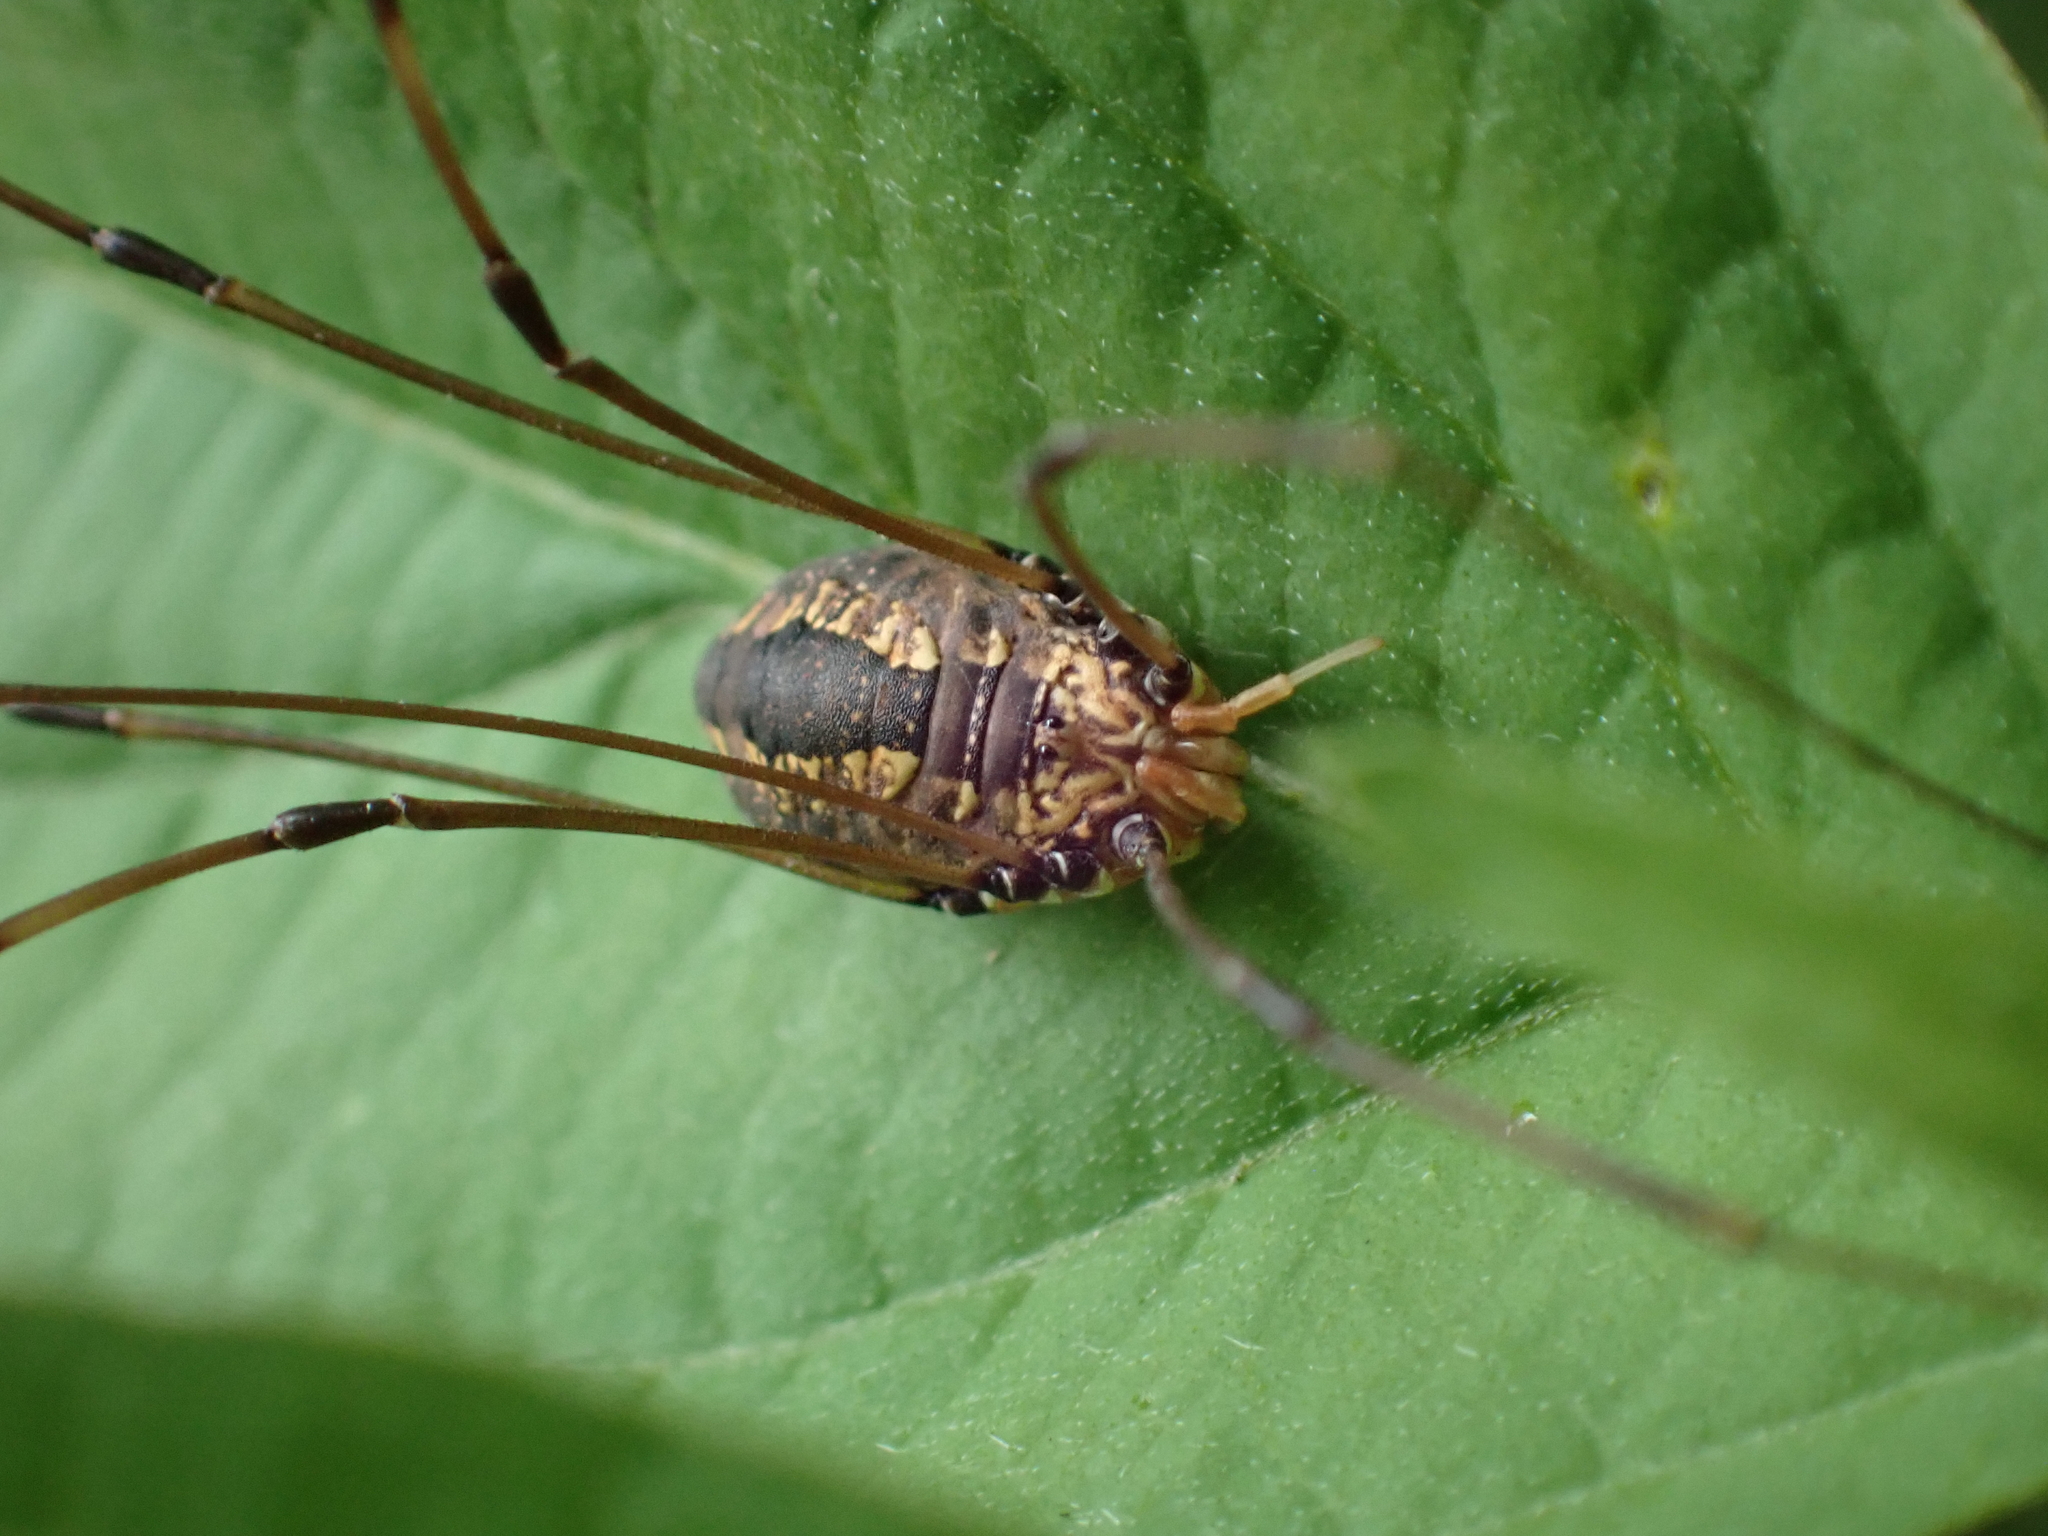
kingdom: Animalia
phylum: Arthropoda
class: Arachnida
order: Opiliones
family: Sclerosomatidae
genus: Leiobunum
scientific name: Leiobunum vittatum
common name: Eastern harvestman
